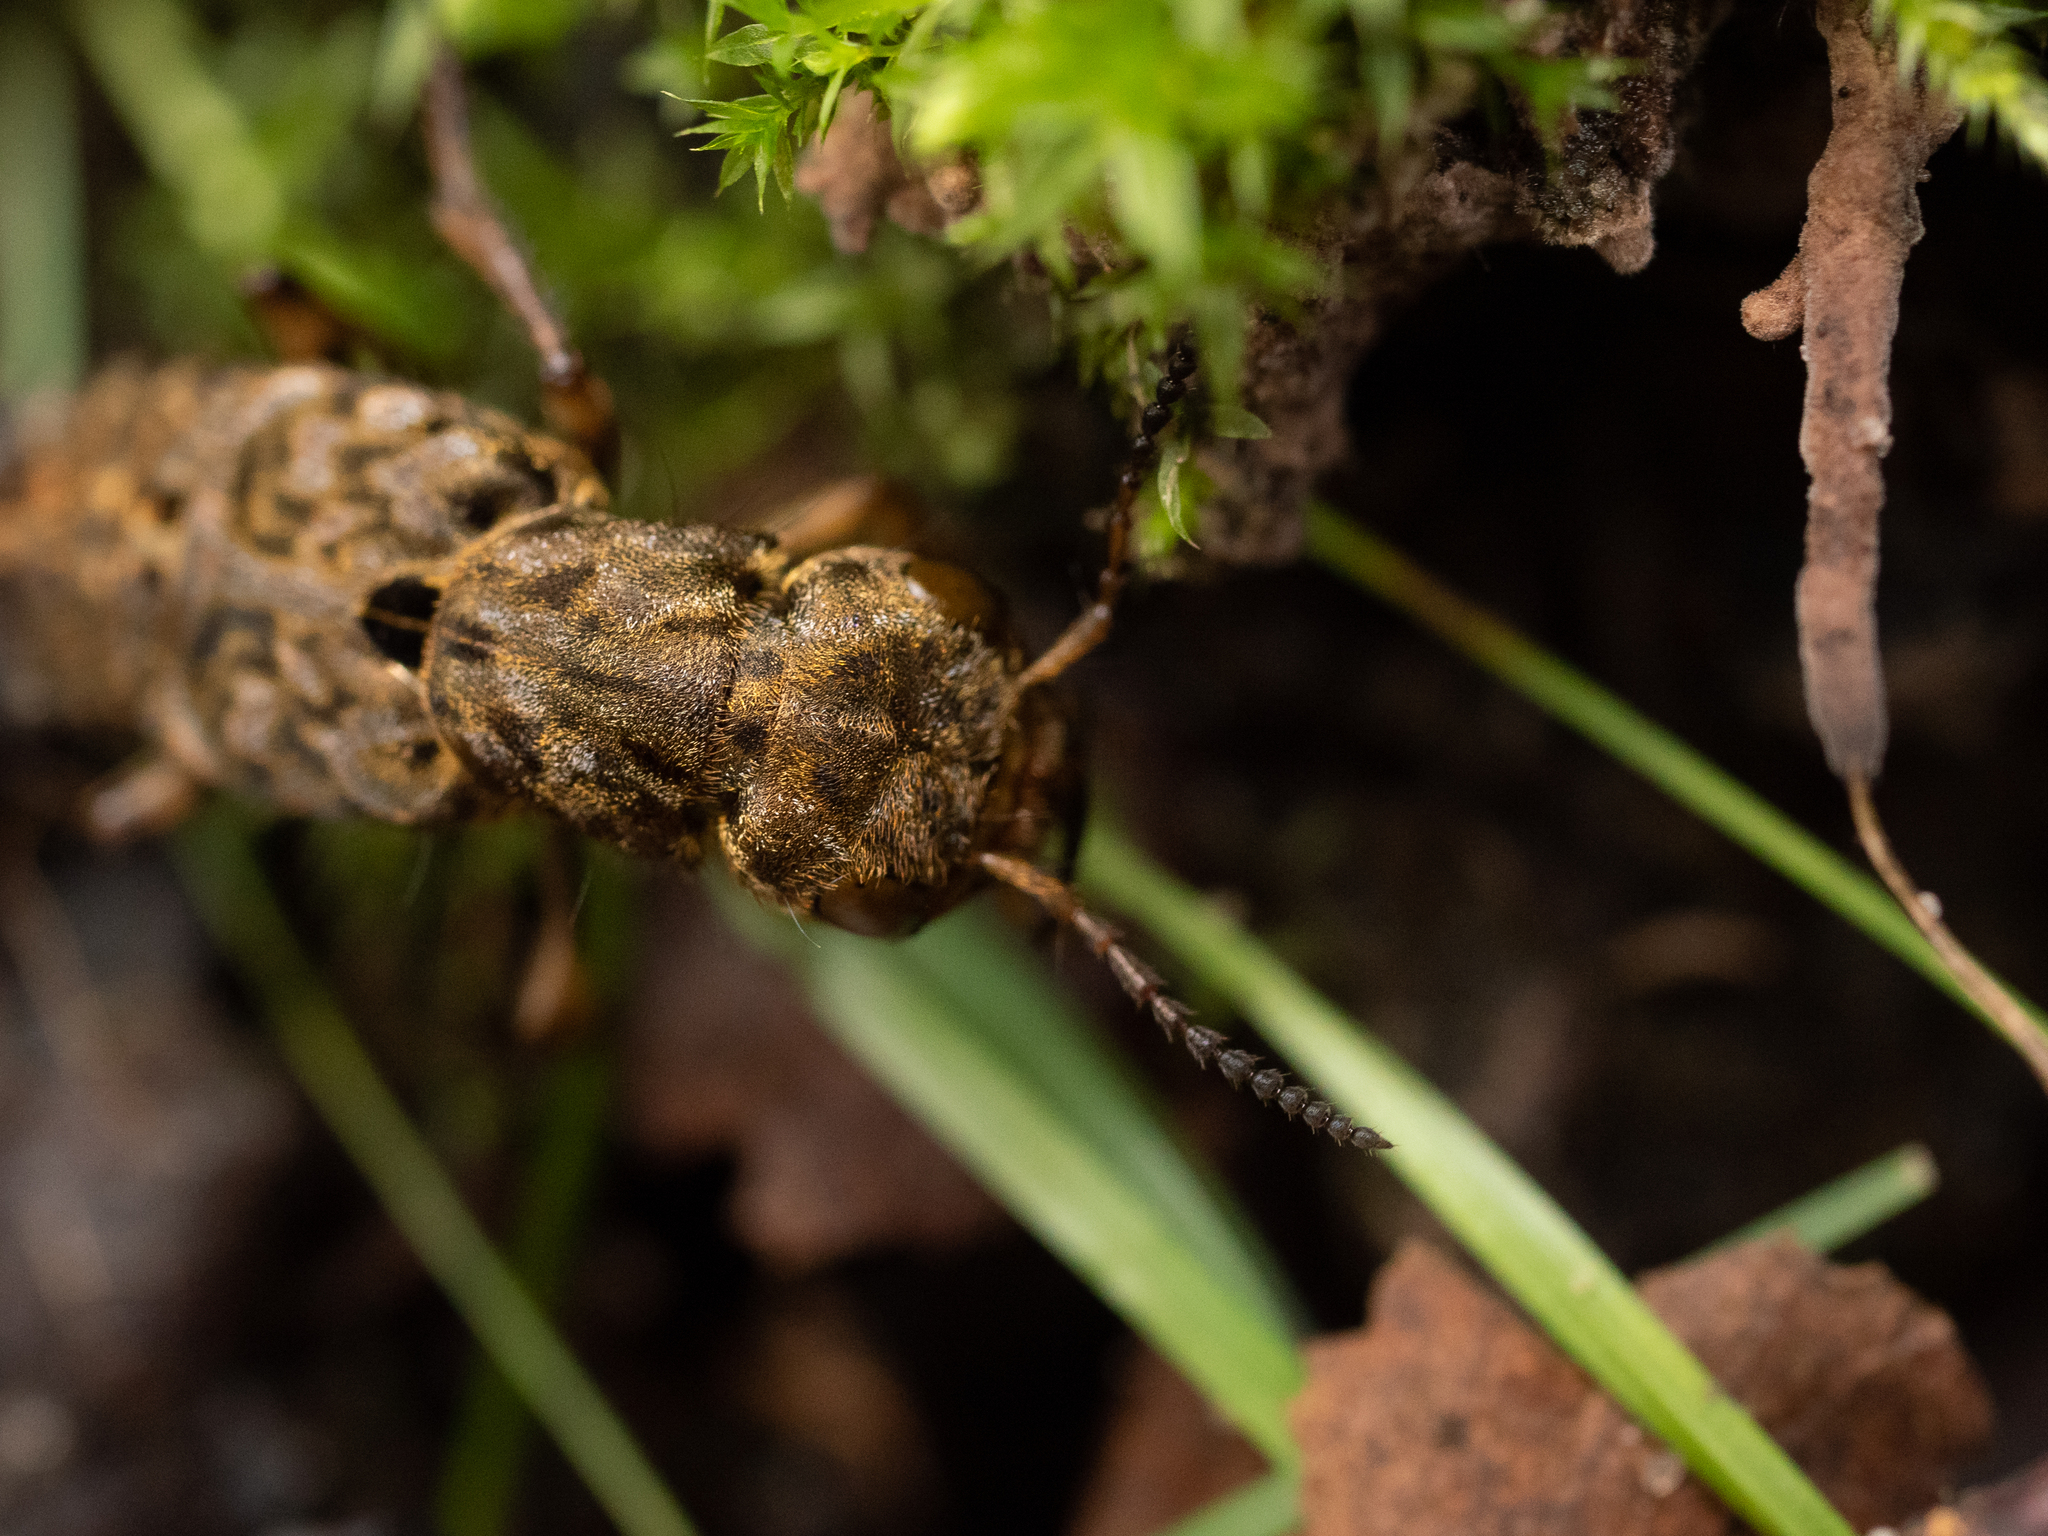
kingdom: Animalia
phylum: Arthropoda
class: Insecta
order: Coleoptera
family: Staphylinidae
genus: Ontholestes
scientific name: Ontholestes tessellatus
